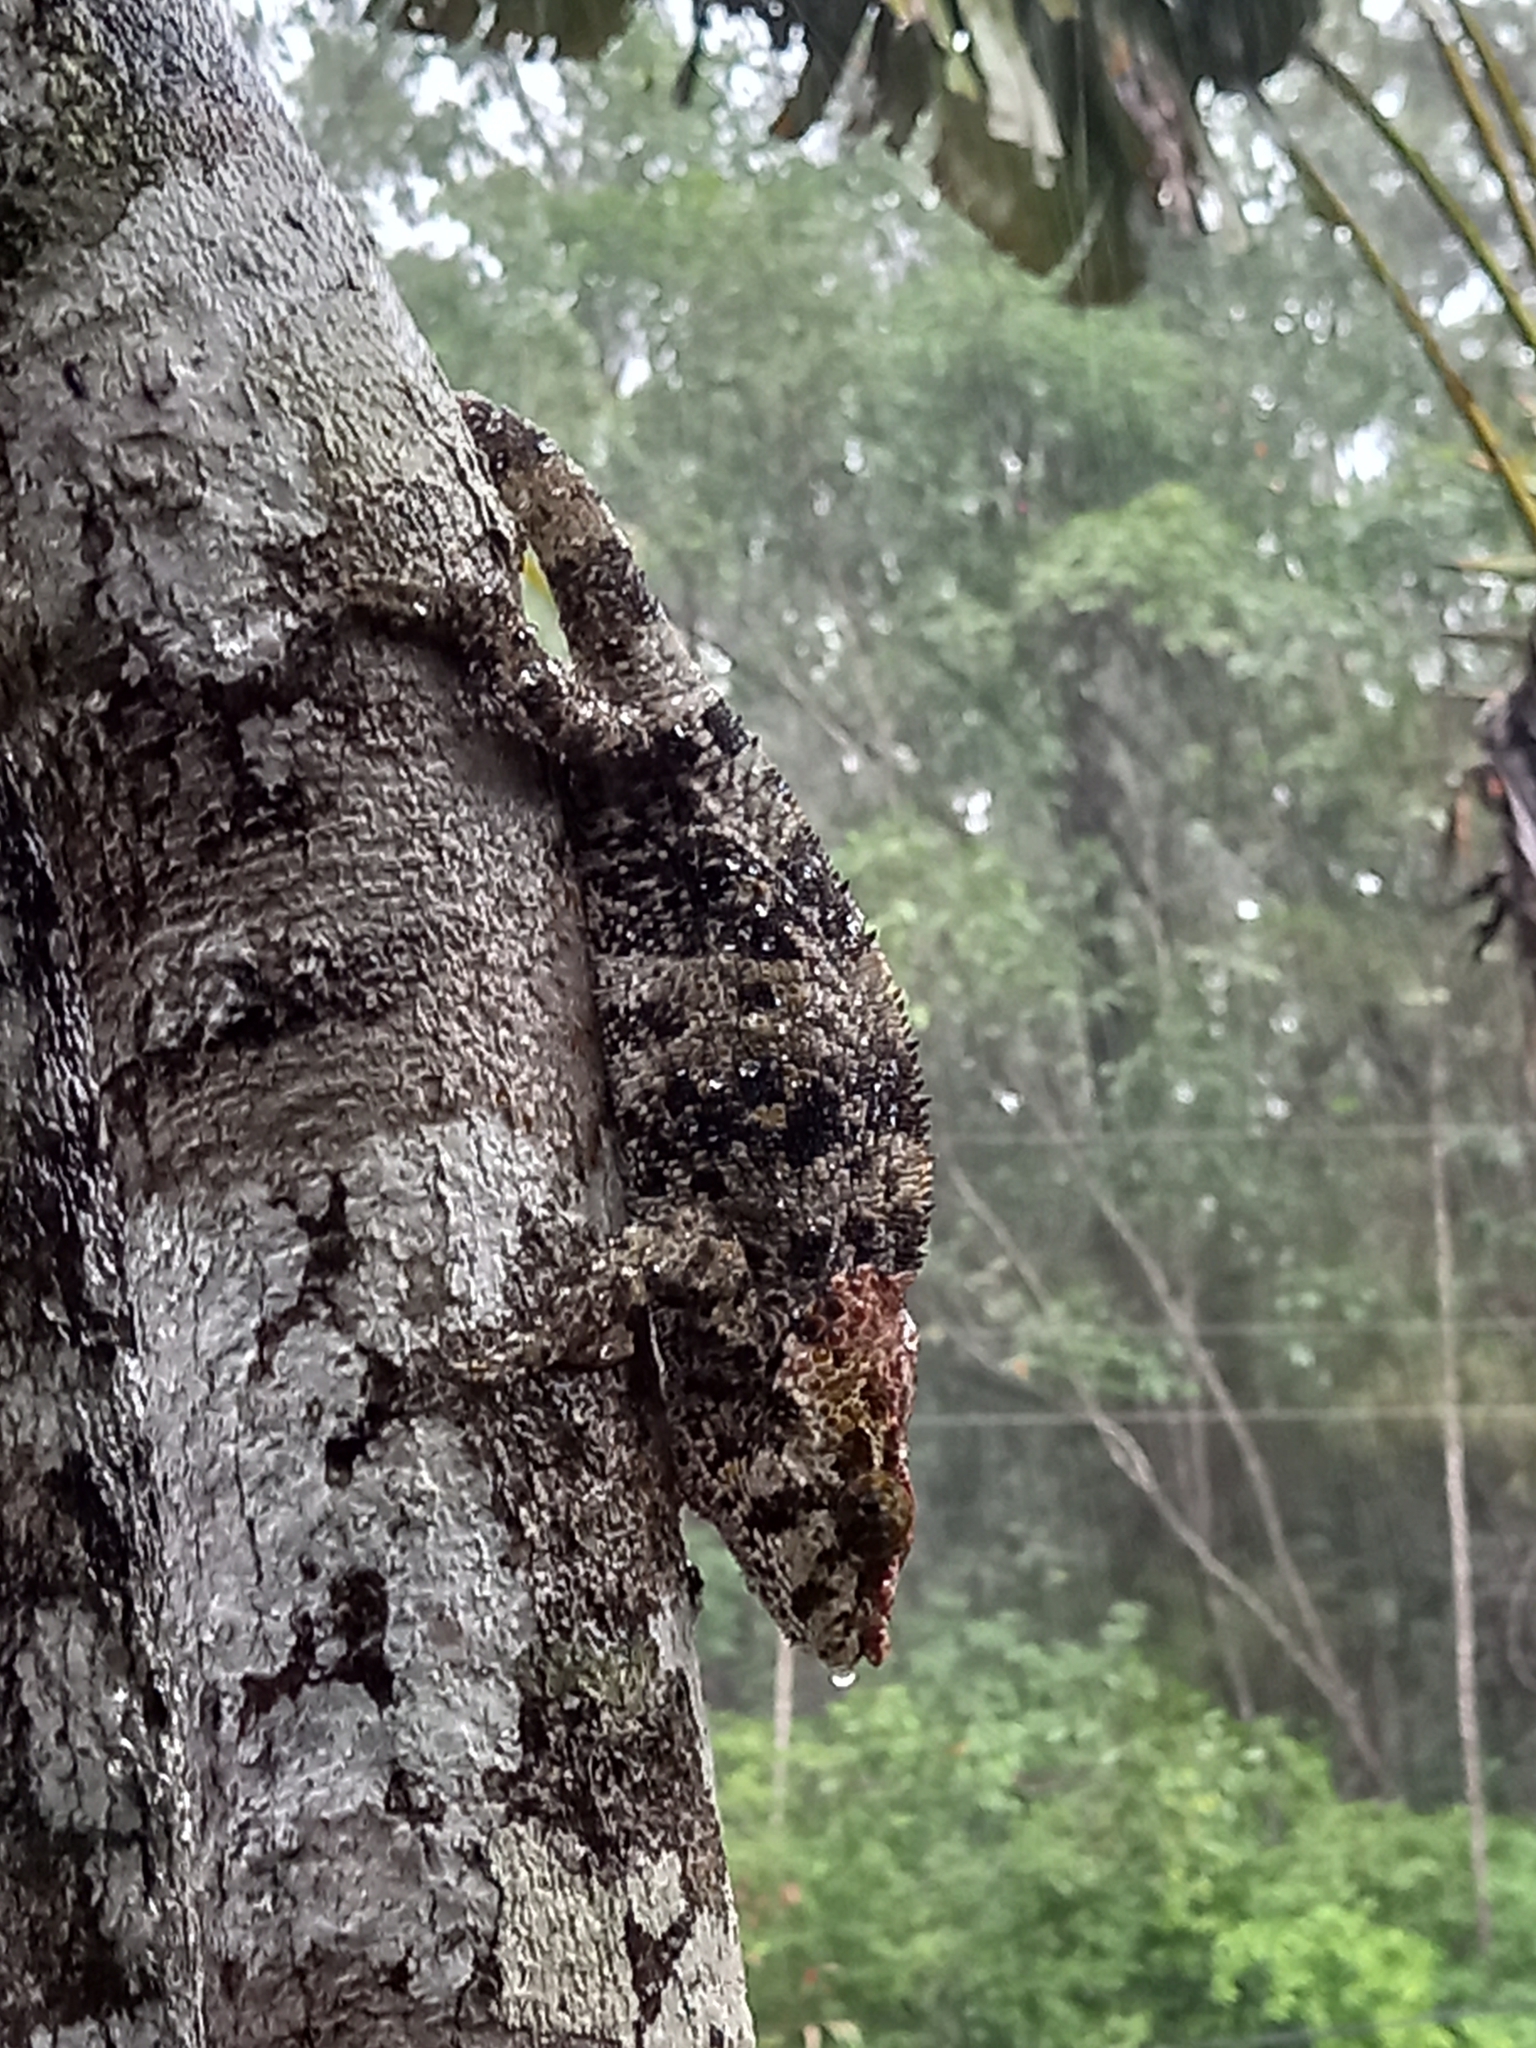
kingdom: Animalia
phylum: Chordata
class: Squamata
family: Chamaeleonidae
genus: Calumma
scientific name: Calumma brevicorne
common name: Short-horned chameleon
